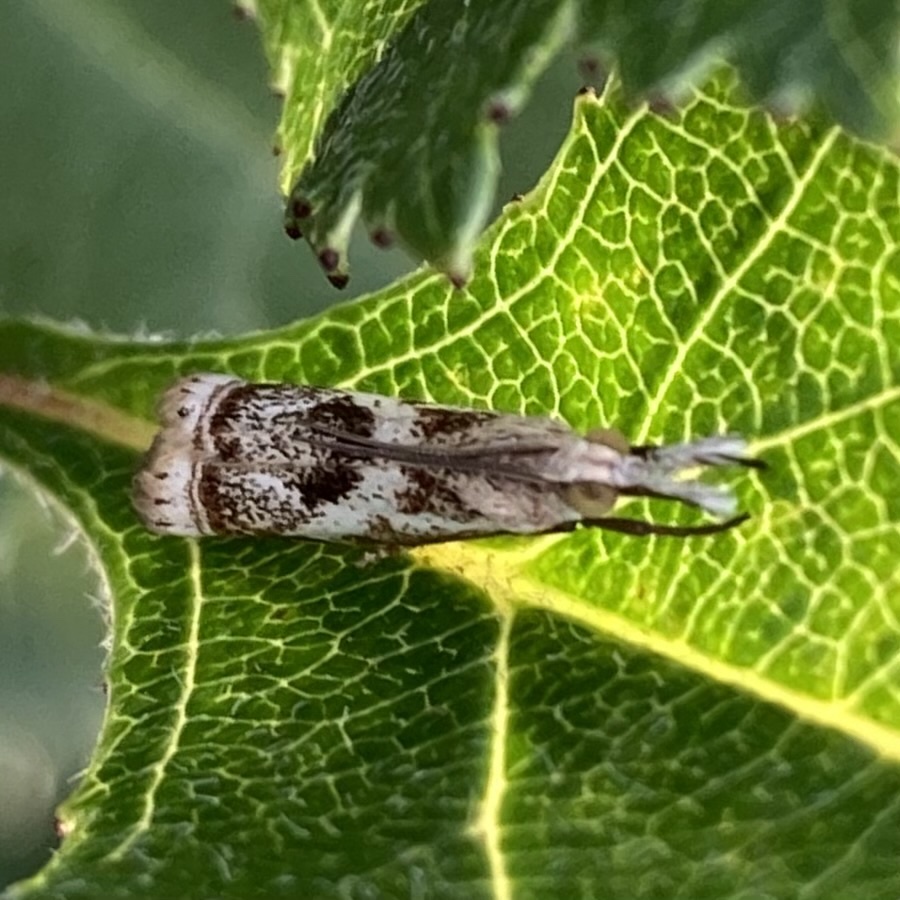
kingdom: Animalia
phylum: Arthropoda
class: Insecta
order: Lepidoptera
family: Crambidae
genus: Microcrambus
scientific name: Microcrambus elegans
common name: Elegant grass-veneer
